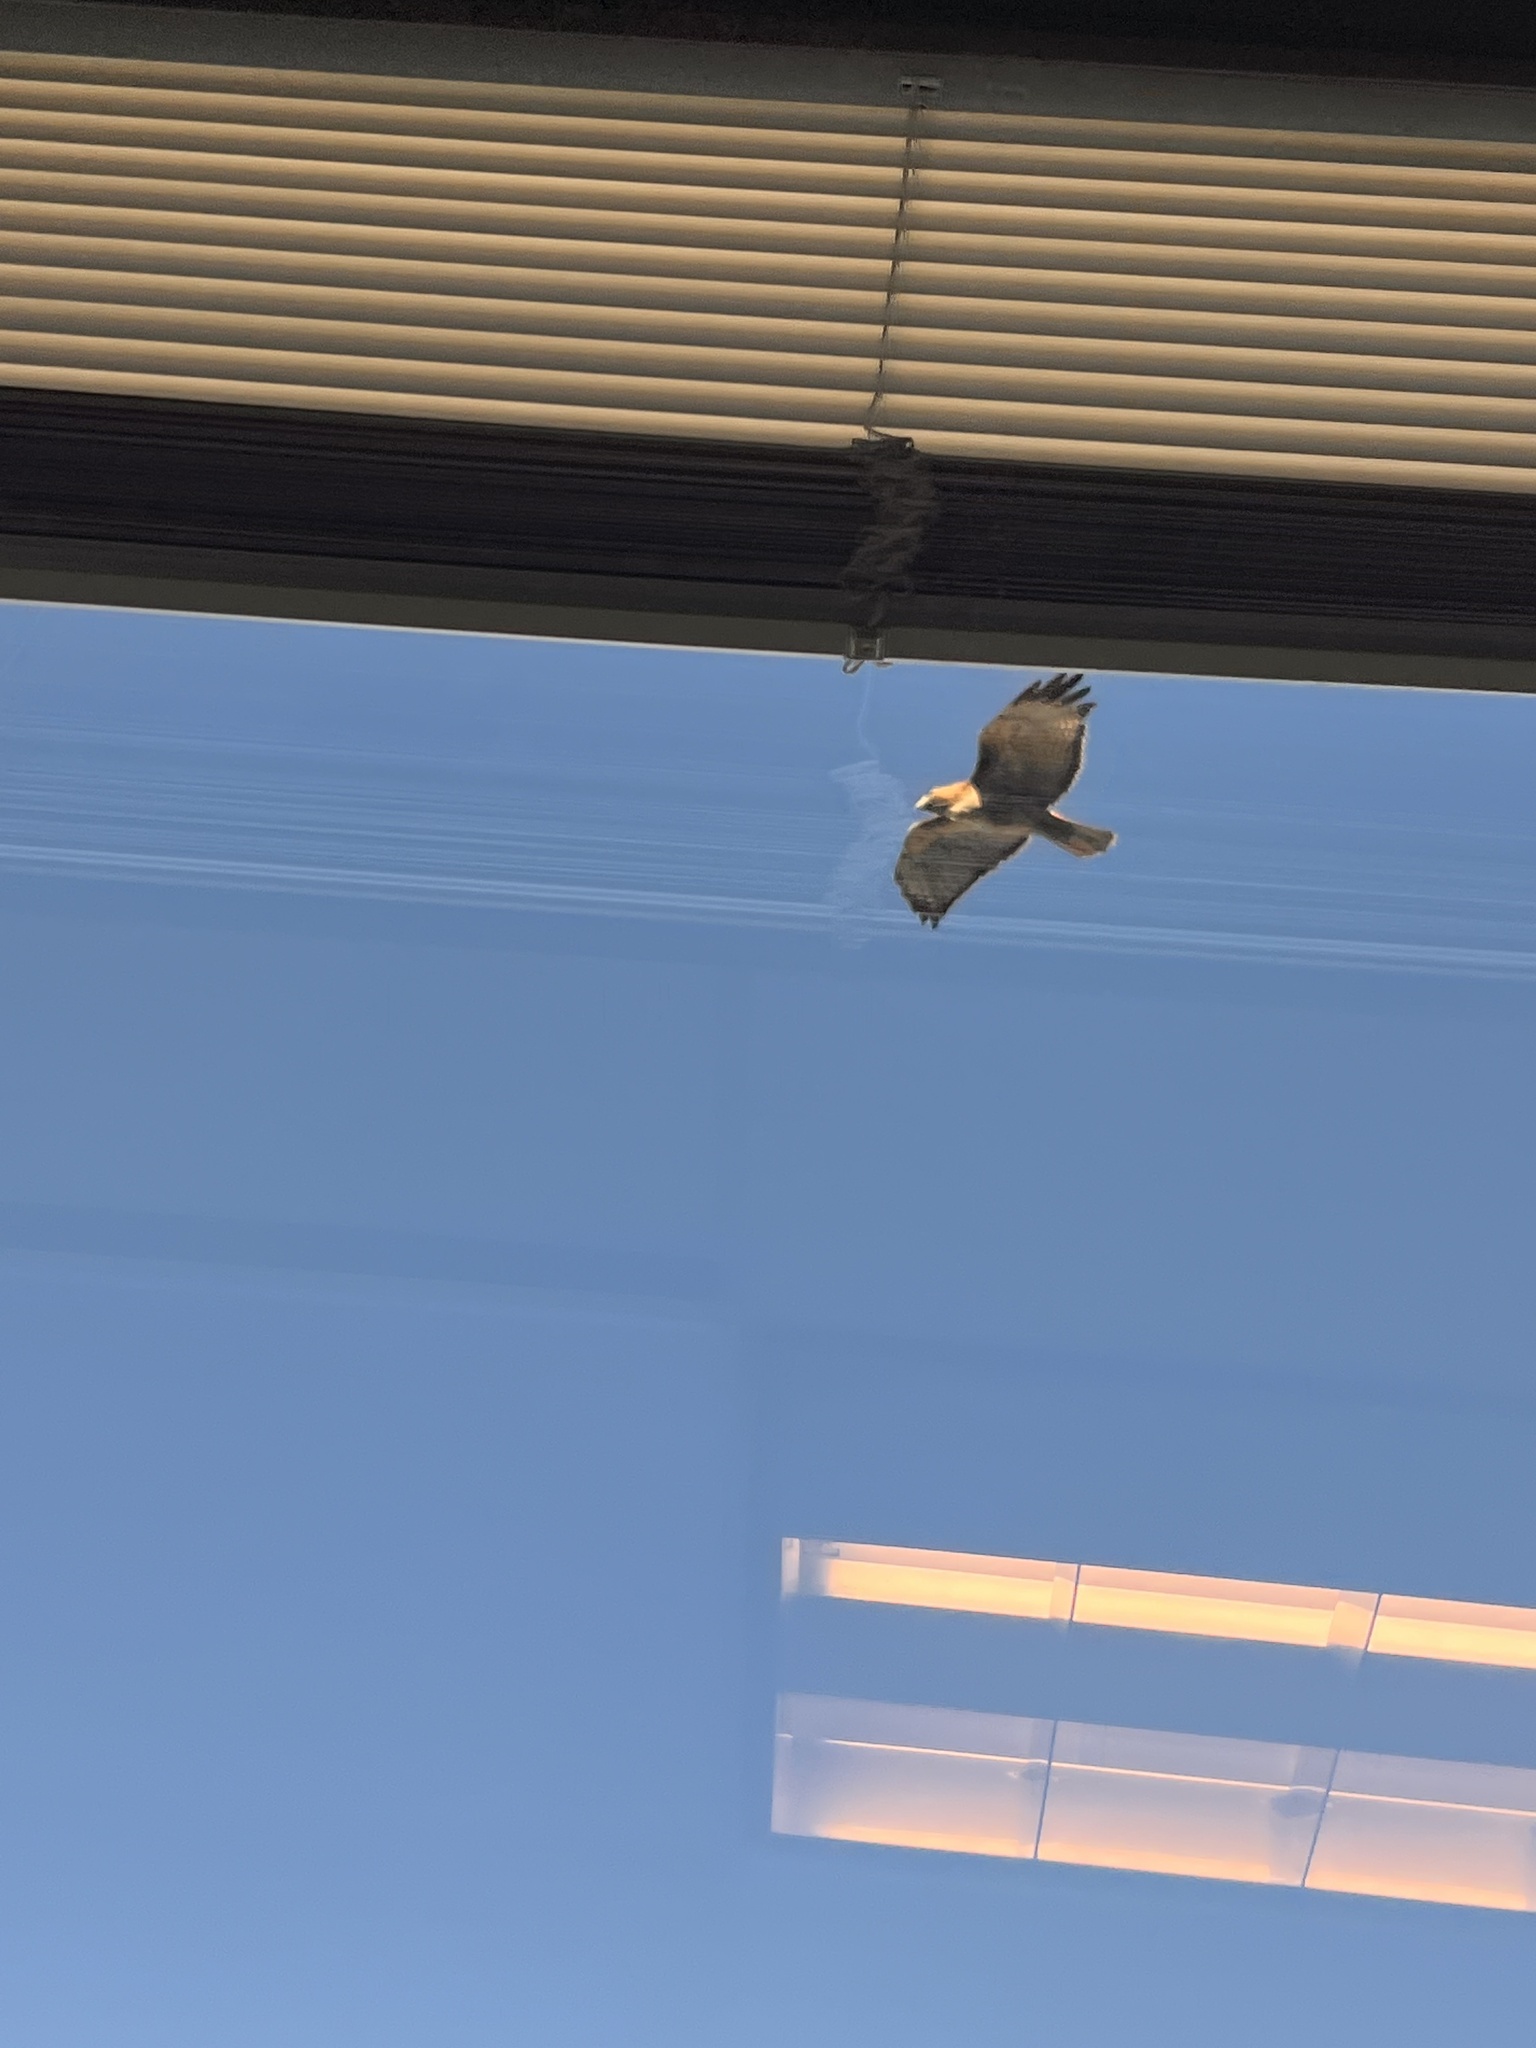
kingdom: Animalia
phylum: Chordata
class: Aves
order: Accipitriformes
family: Accipitridae
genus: Buteo
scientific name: Buteo jamaicensis
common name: Red-tailed hawk
